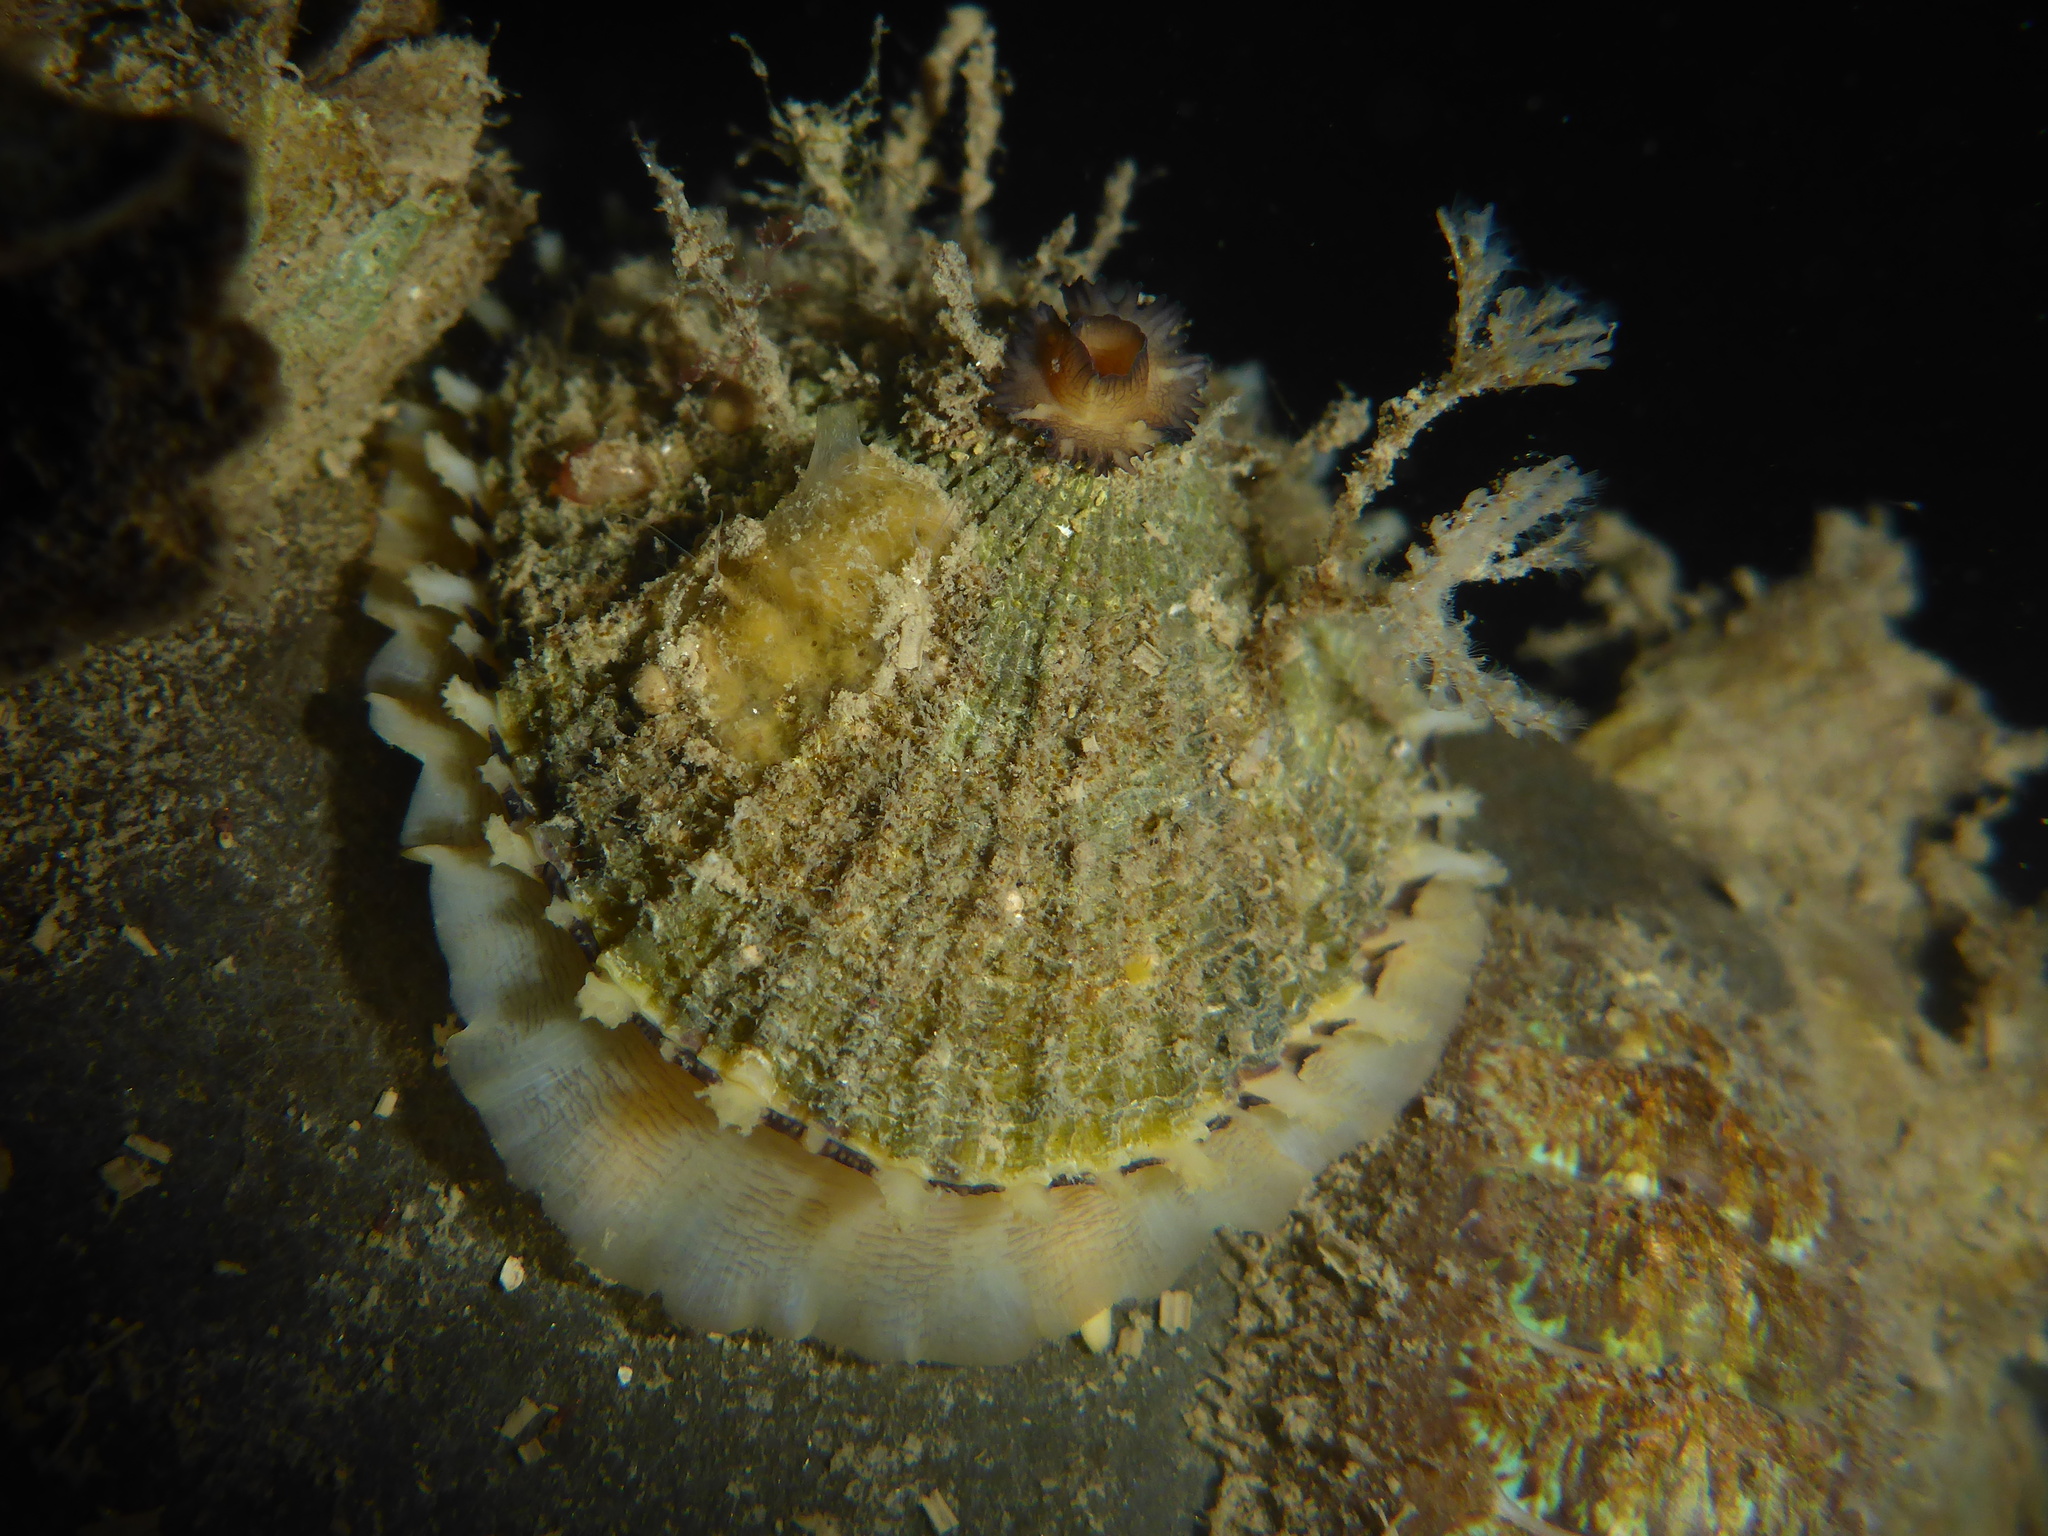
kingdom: Animalia
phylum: Mollusca
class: Gastropoda
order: Lepetellida
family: Fissurellidae
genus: Diodora
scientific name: Diodora aspera
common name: Rough keyhole limpet
